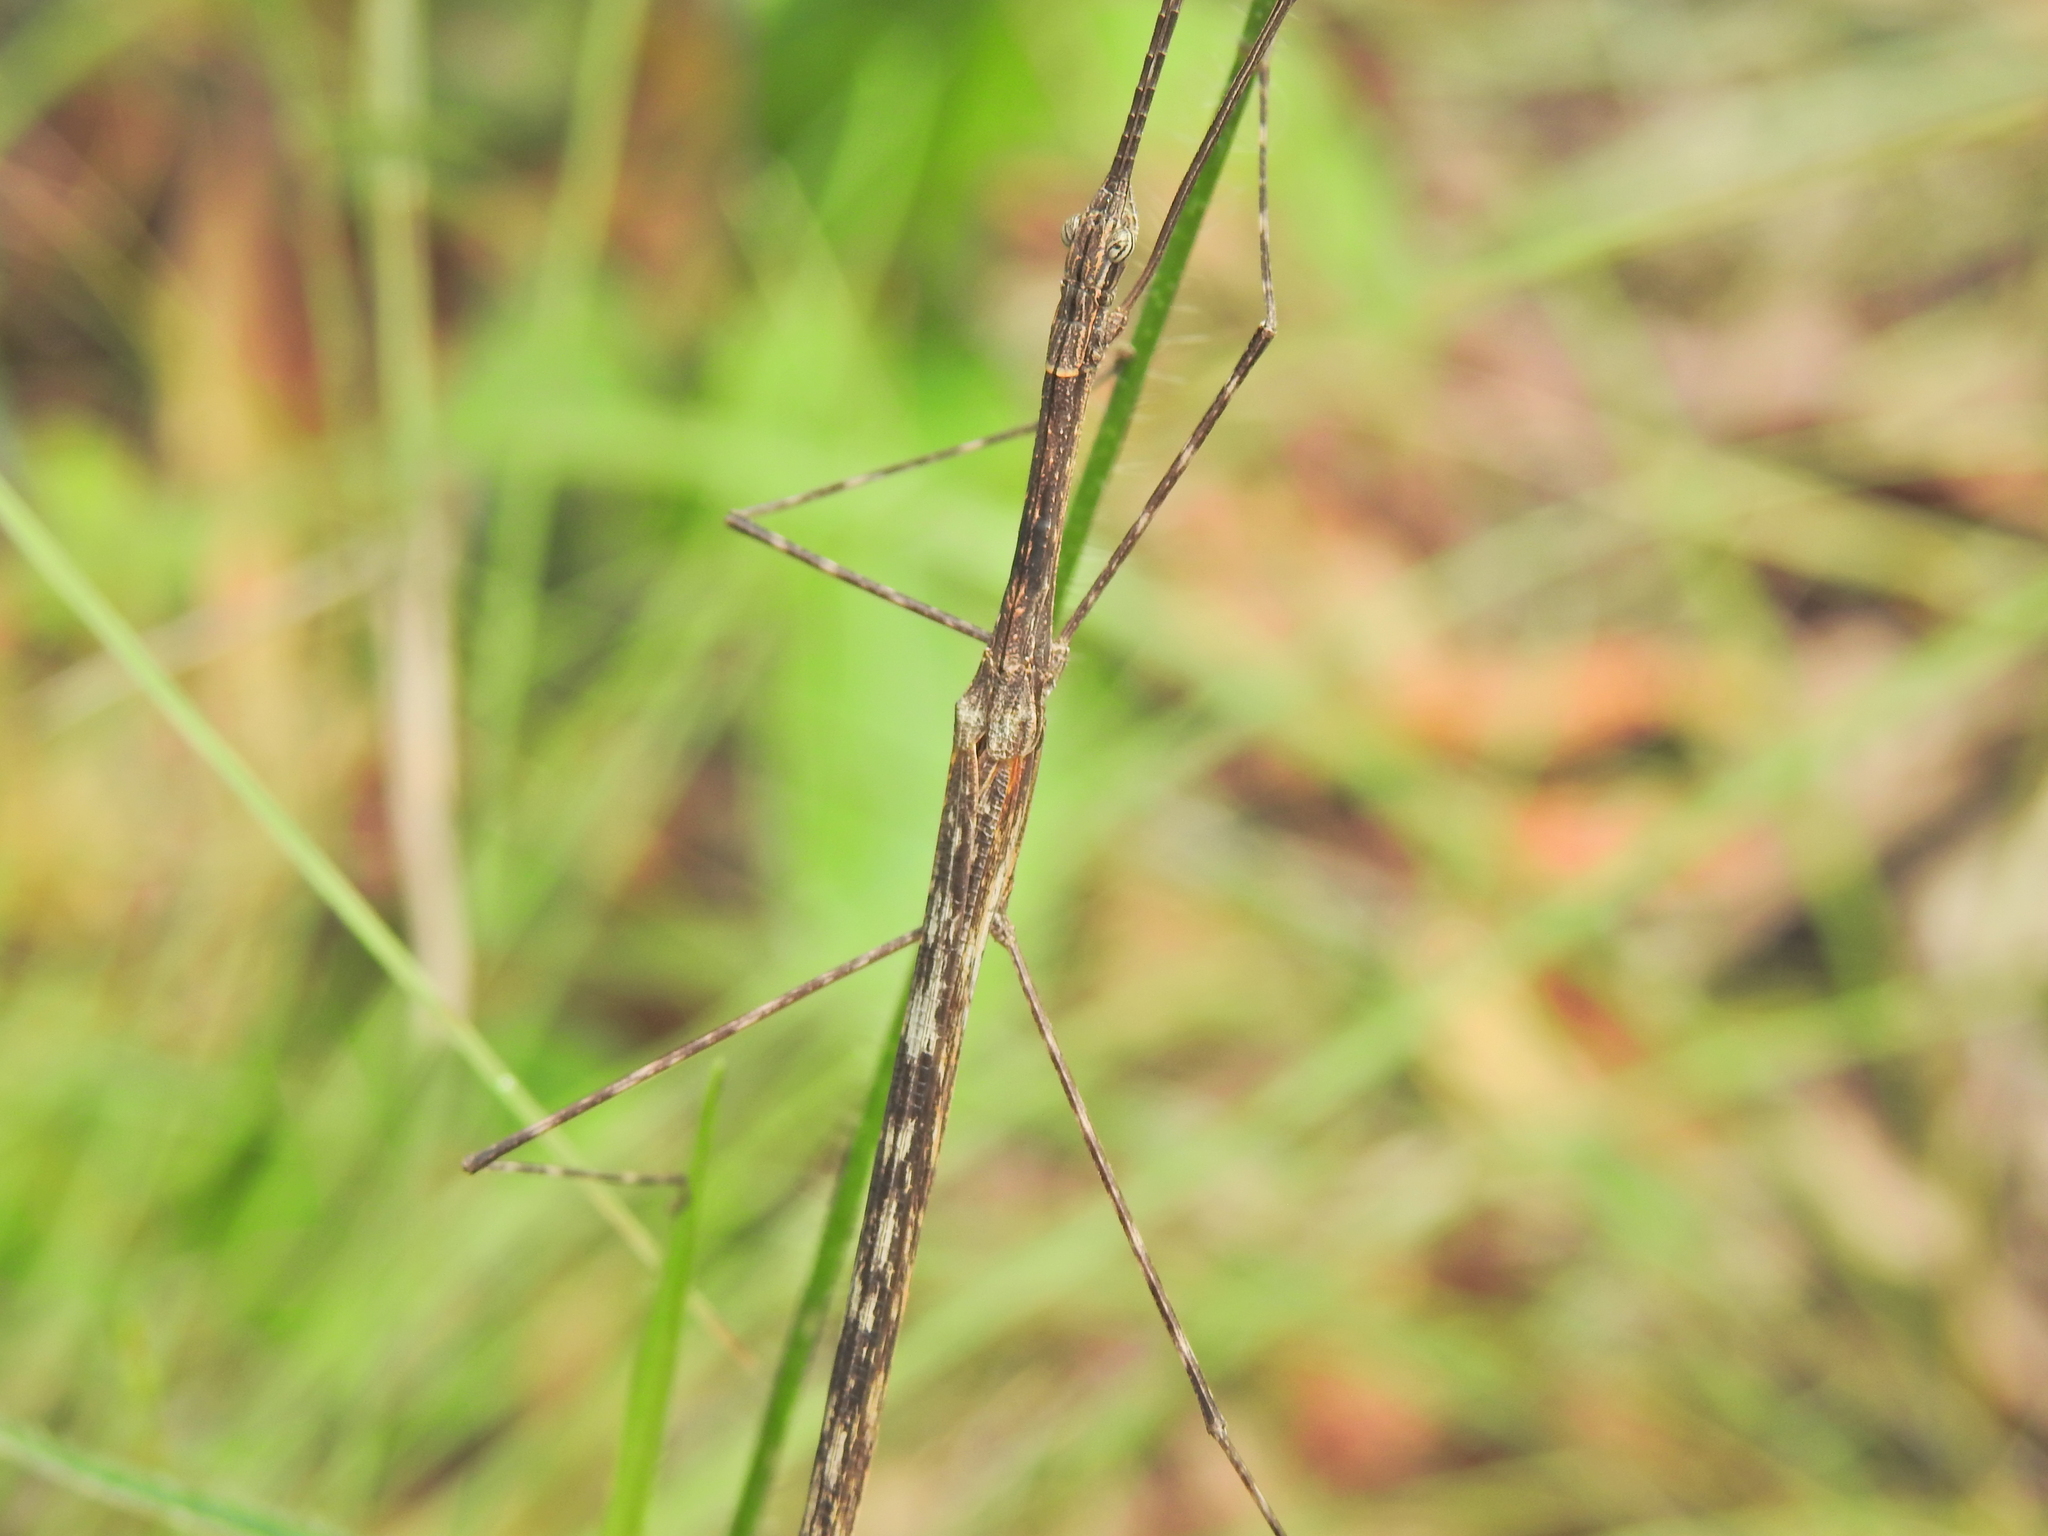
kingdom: Animalia
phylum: Arthropoda
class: Insecta
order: Phasmida
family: Lonchodidae
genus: Mesaner
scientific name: Mesaner sarpedon
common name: Dark-winged stick-insect
